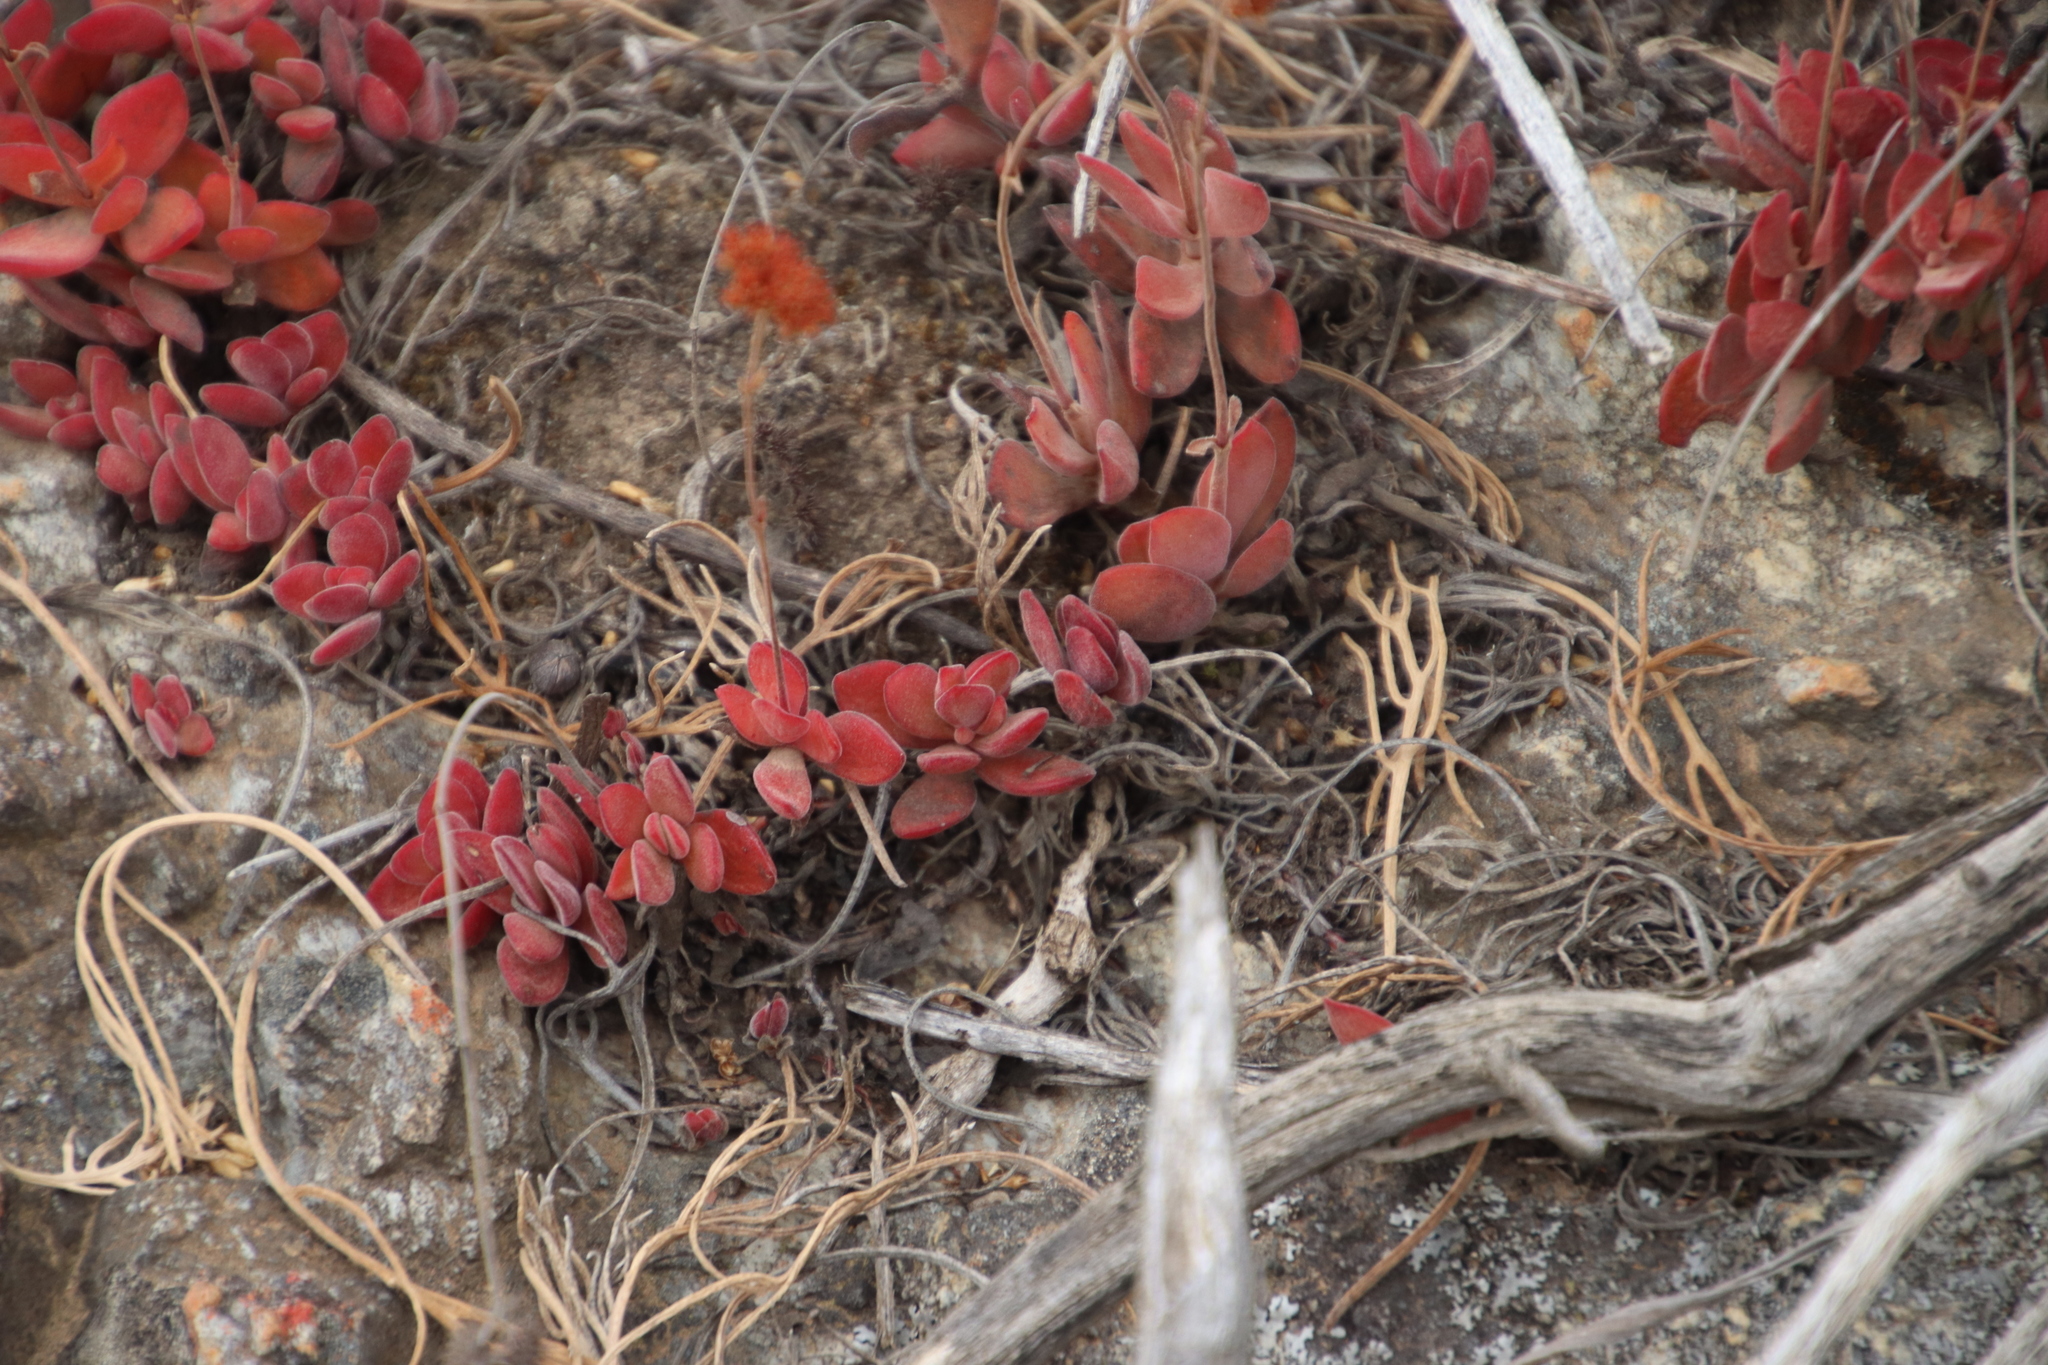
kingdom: Plantae
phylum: Tracheophyta
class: Magnoliopsida
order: Saxifragales
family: Crassulaceae
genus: Crassula
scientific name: Crassula atropurpurea
